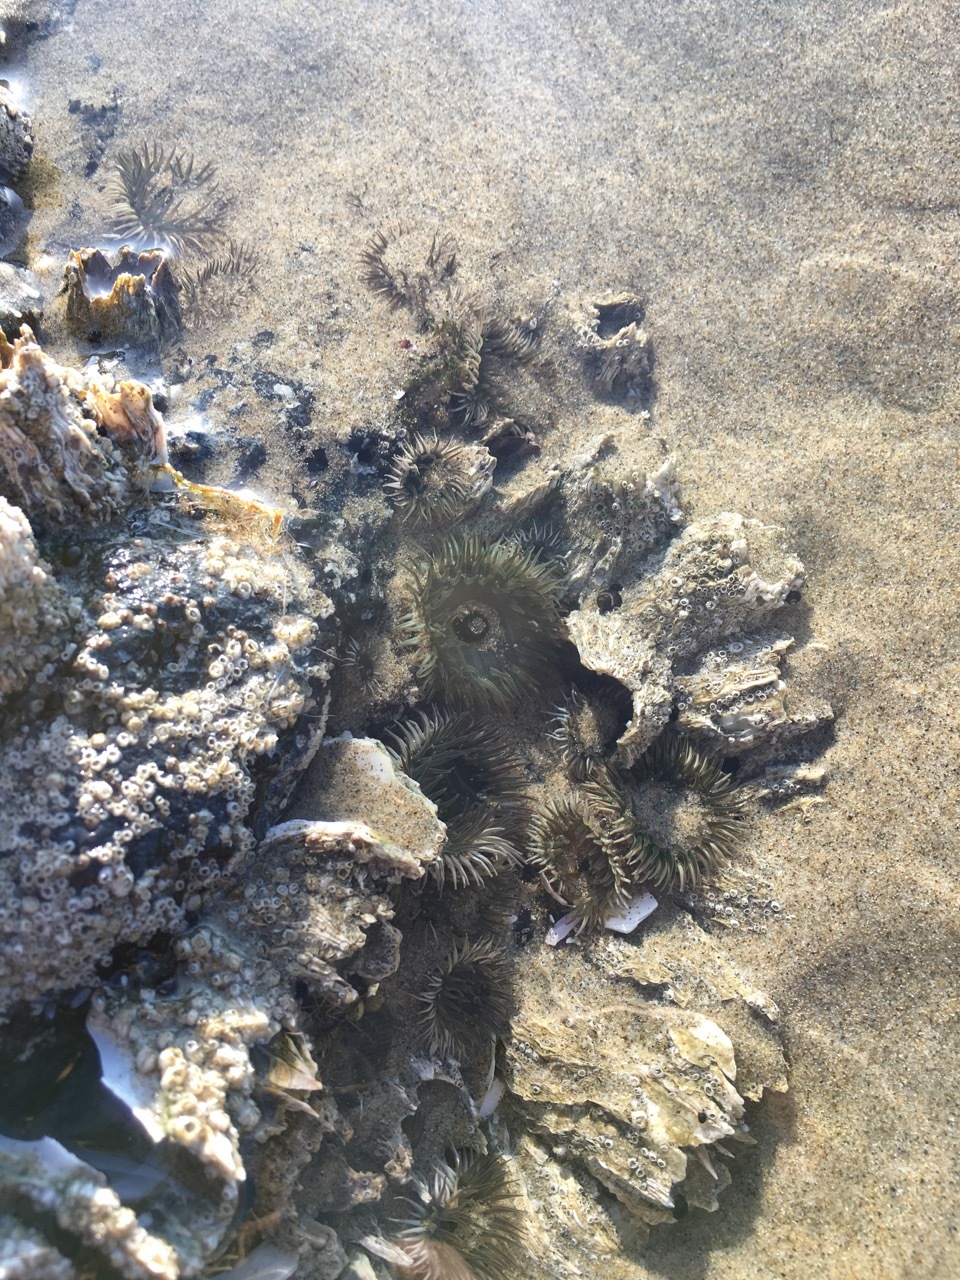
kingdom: Animalia
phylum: Cnidaria
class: Anthozoa
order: Actiniaria
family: Actiniidae
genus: Anthopleura
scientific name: Anthopleura elegantissima
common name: Clonal anemone
